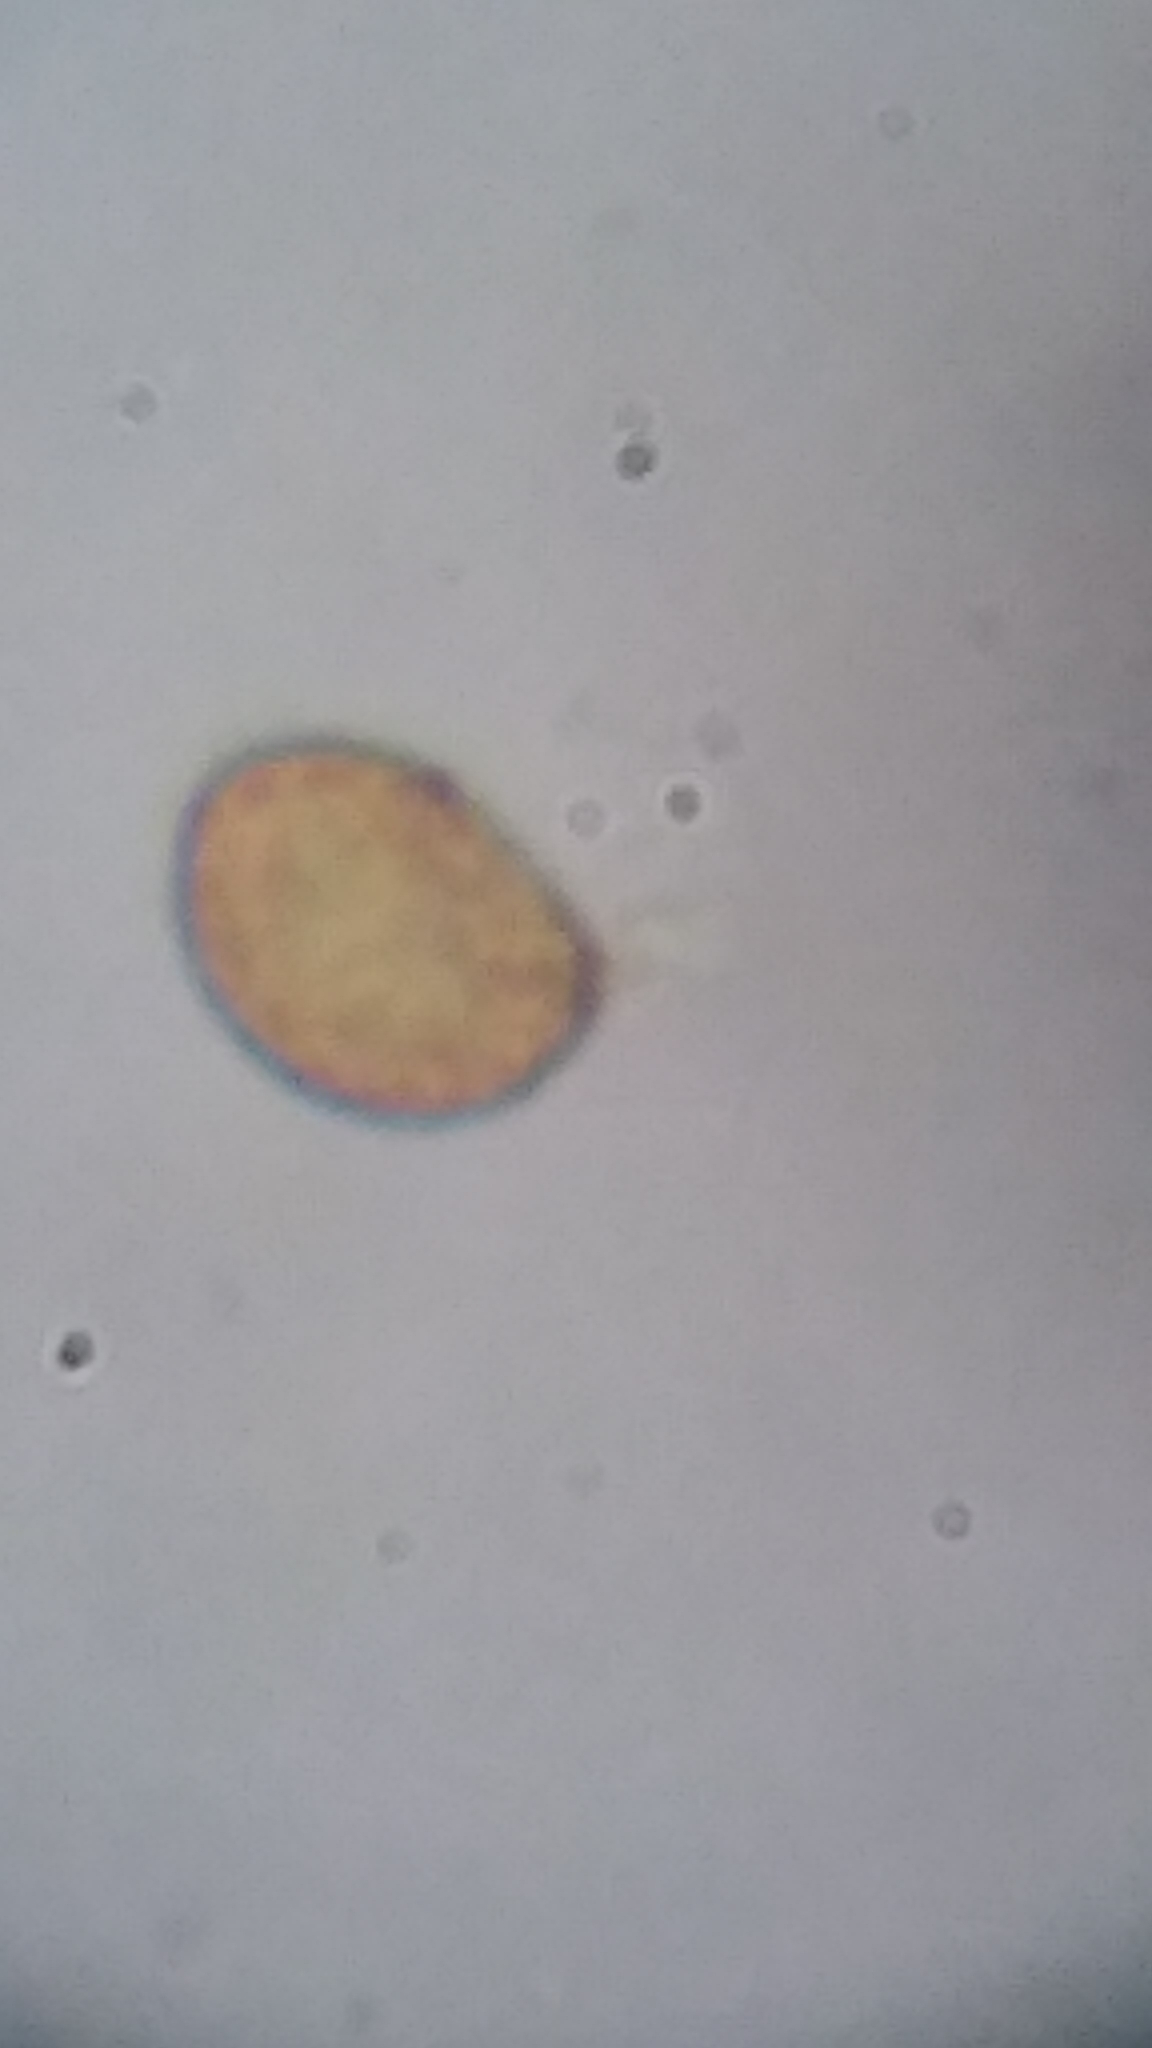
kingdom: Fungi
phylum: Basidiomycota
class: Agaricomycetes
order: Agaricales
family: Hymenogastraceae
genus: Gymnopilus
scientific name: Gymnopilus luteus
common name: Yellow gymnopilus
